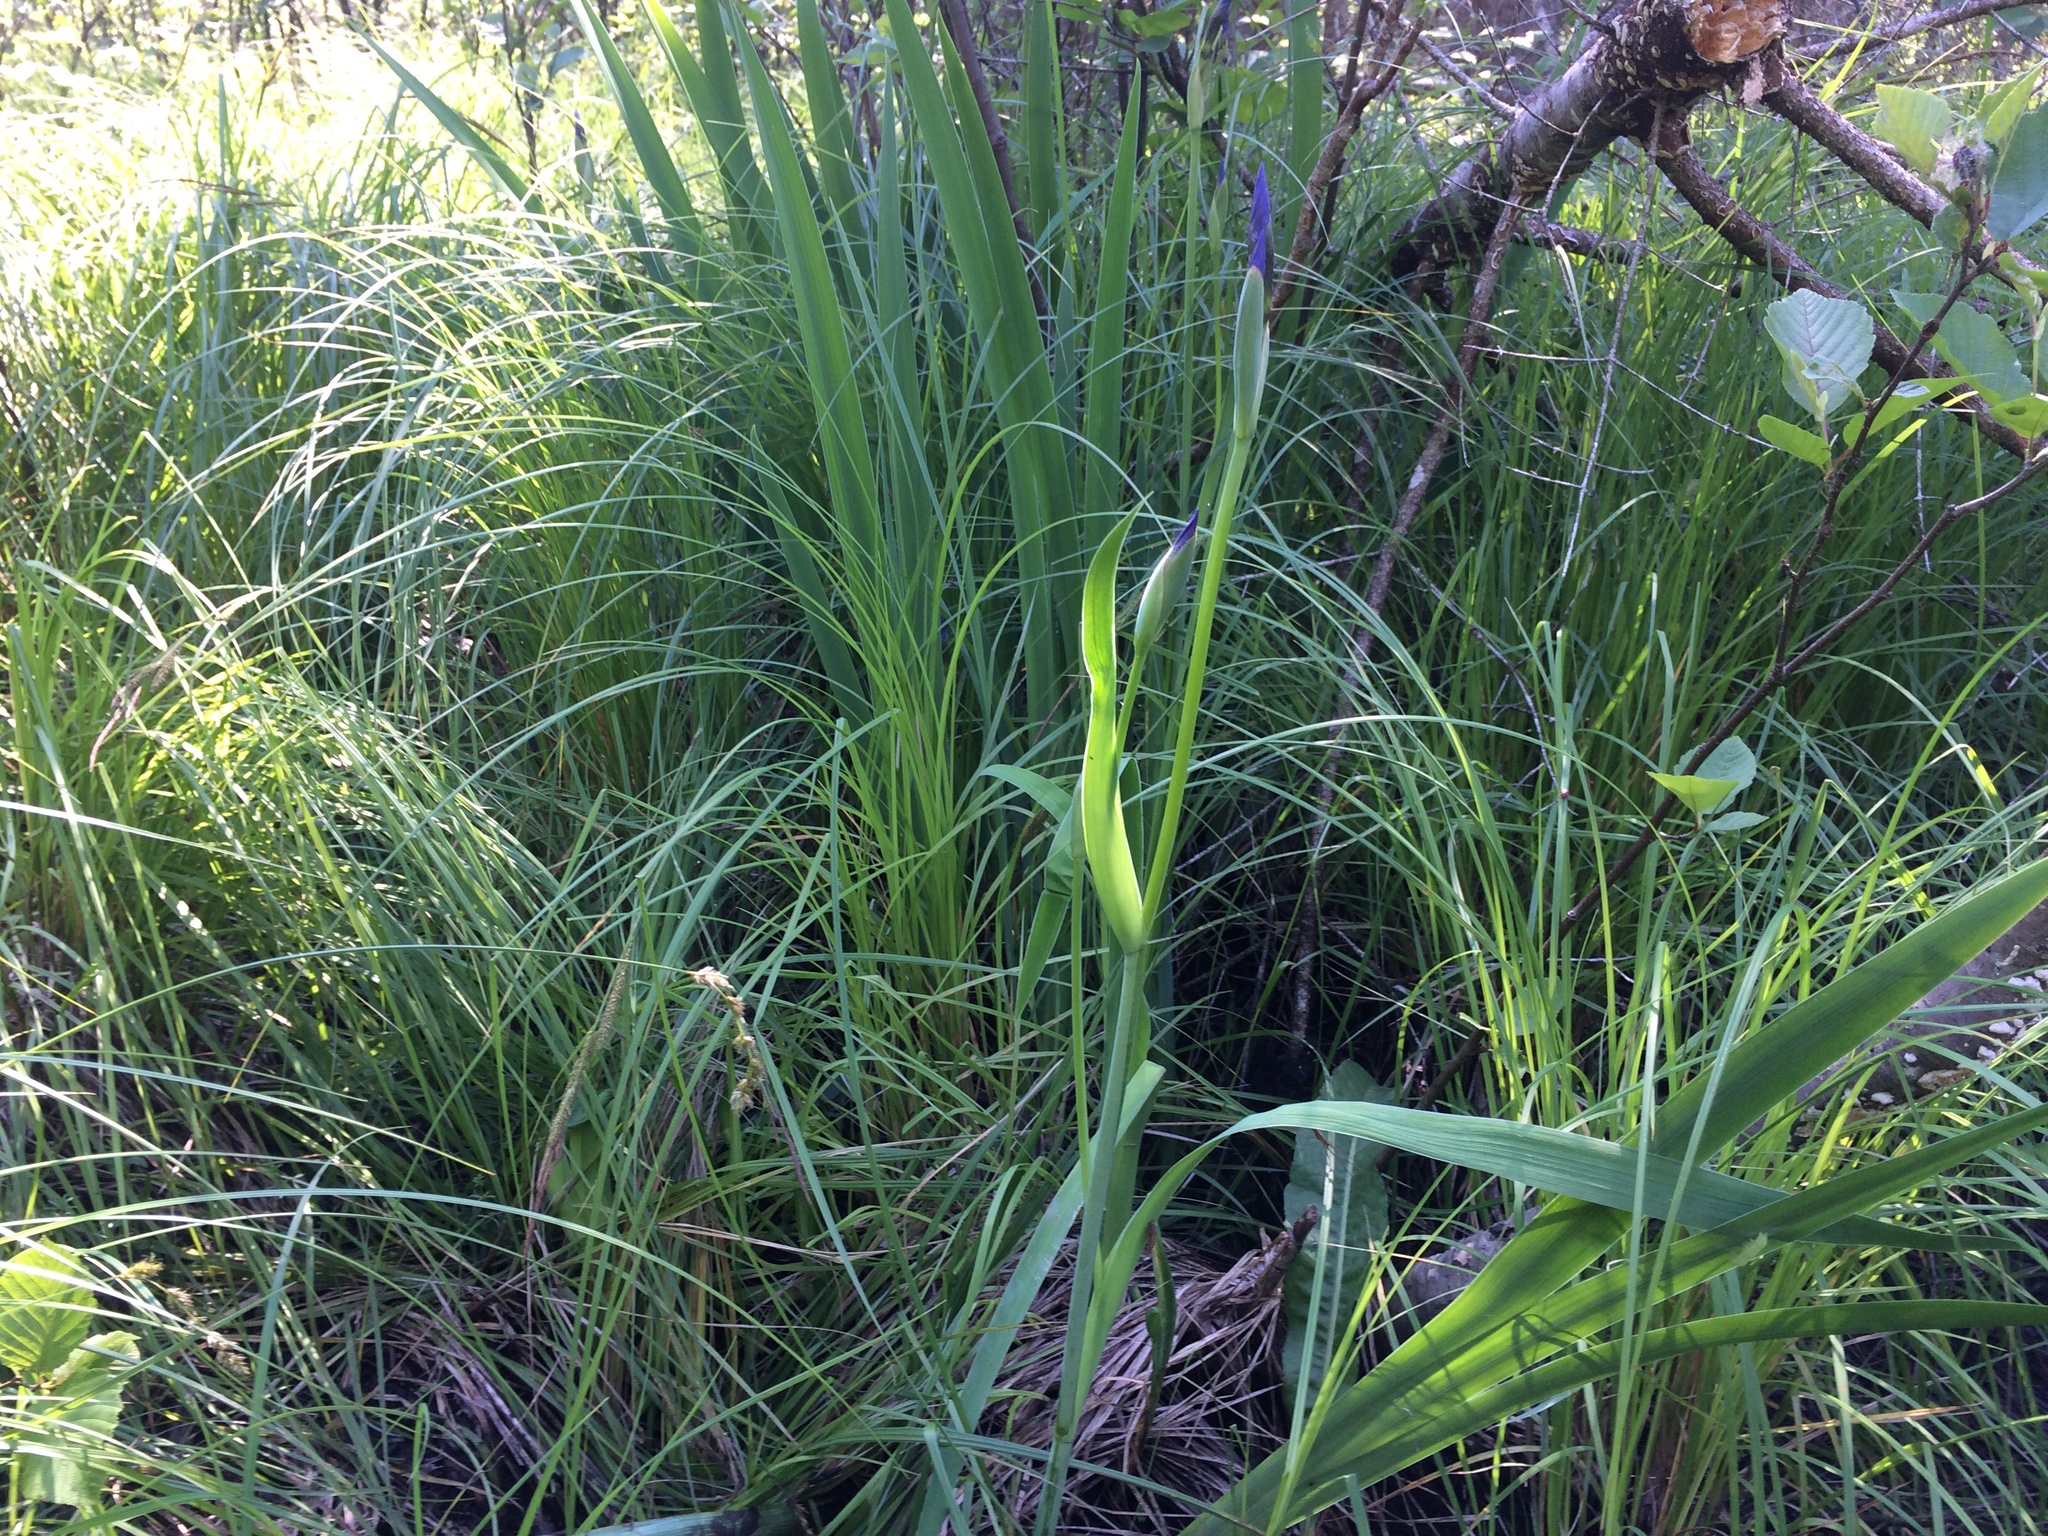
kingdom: Plantae
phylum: Tracheophyta
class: Liliopsida
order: Asparagales
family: Iridaceae
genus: Iris
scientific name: Iris versicolor
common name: Purple iris
